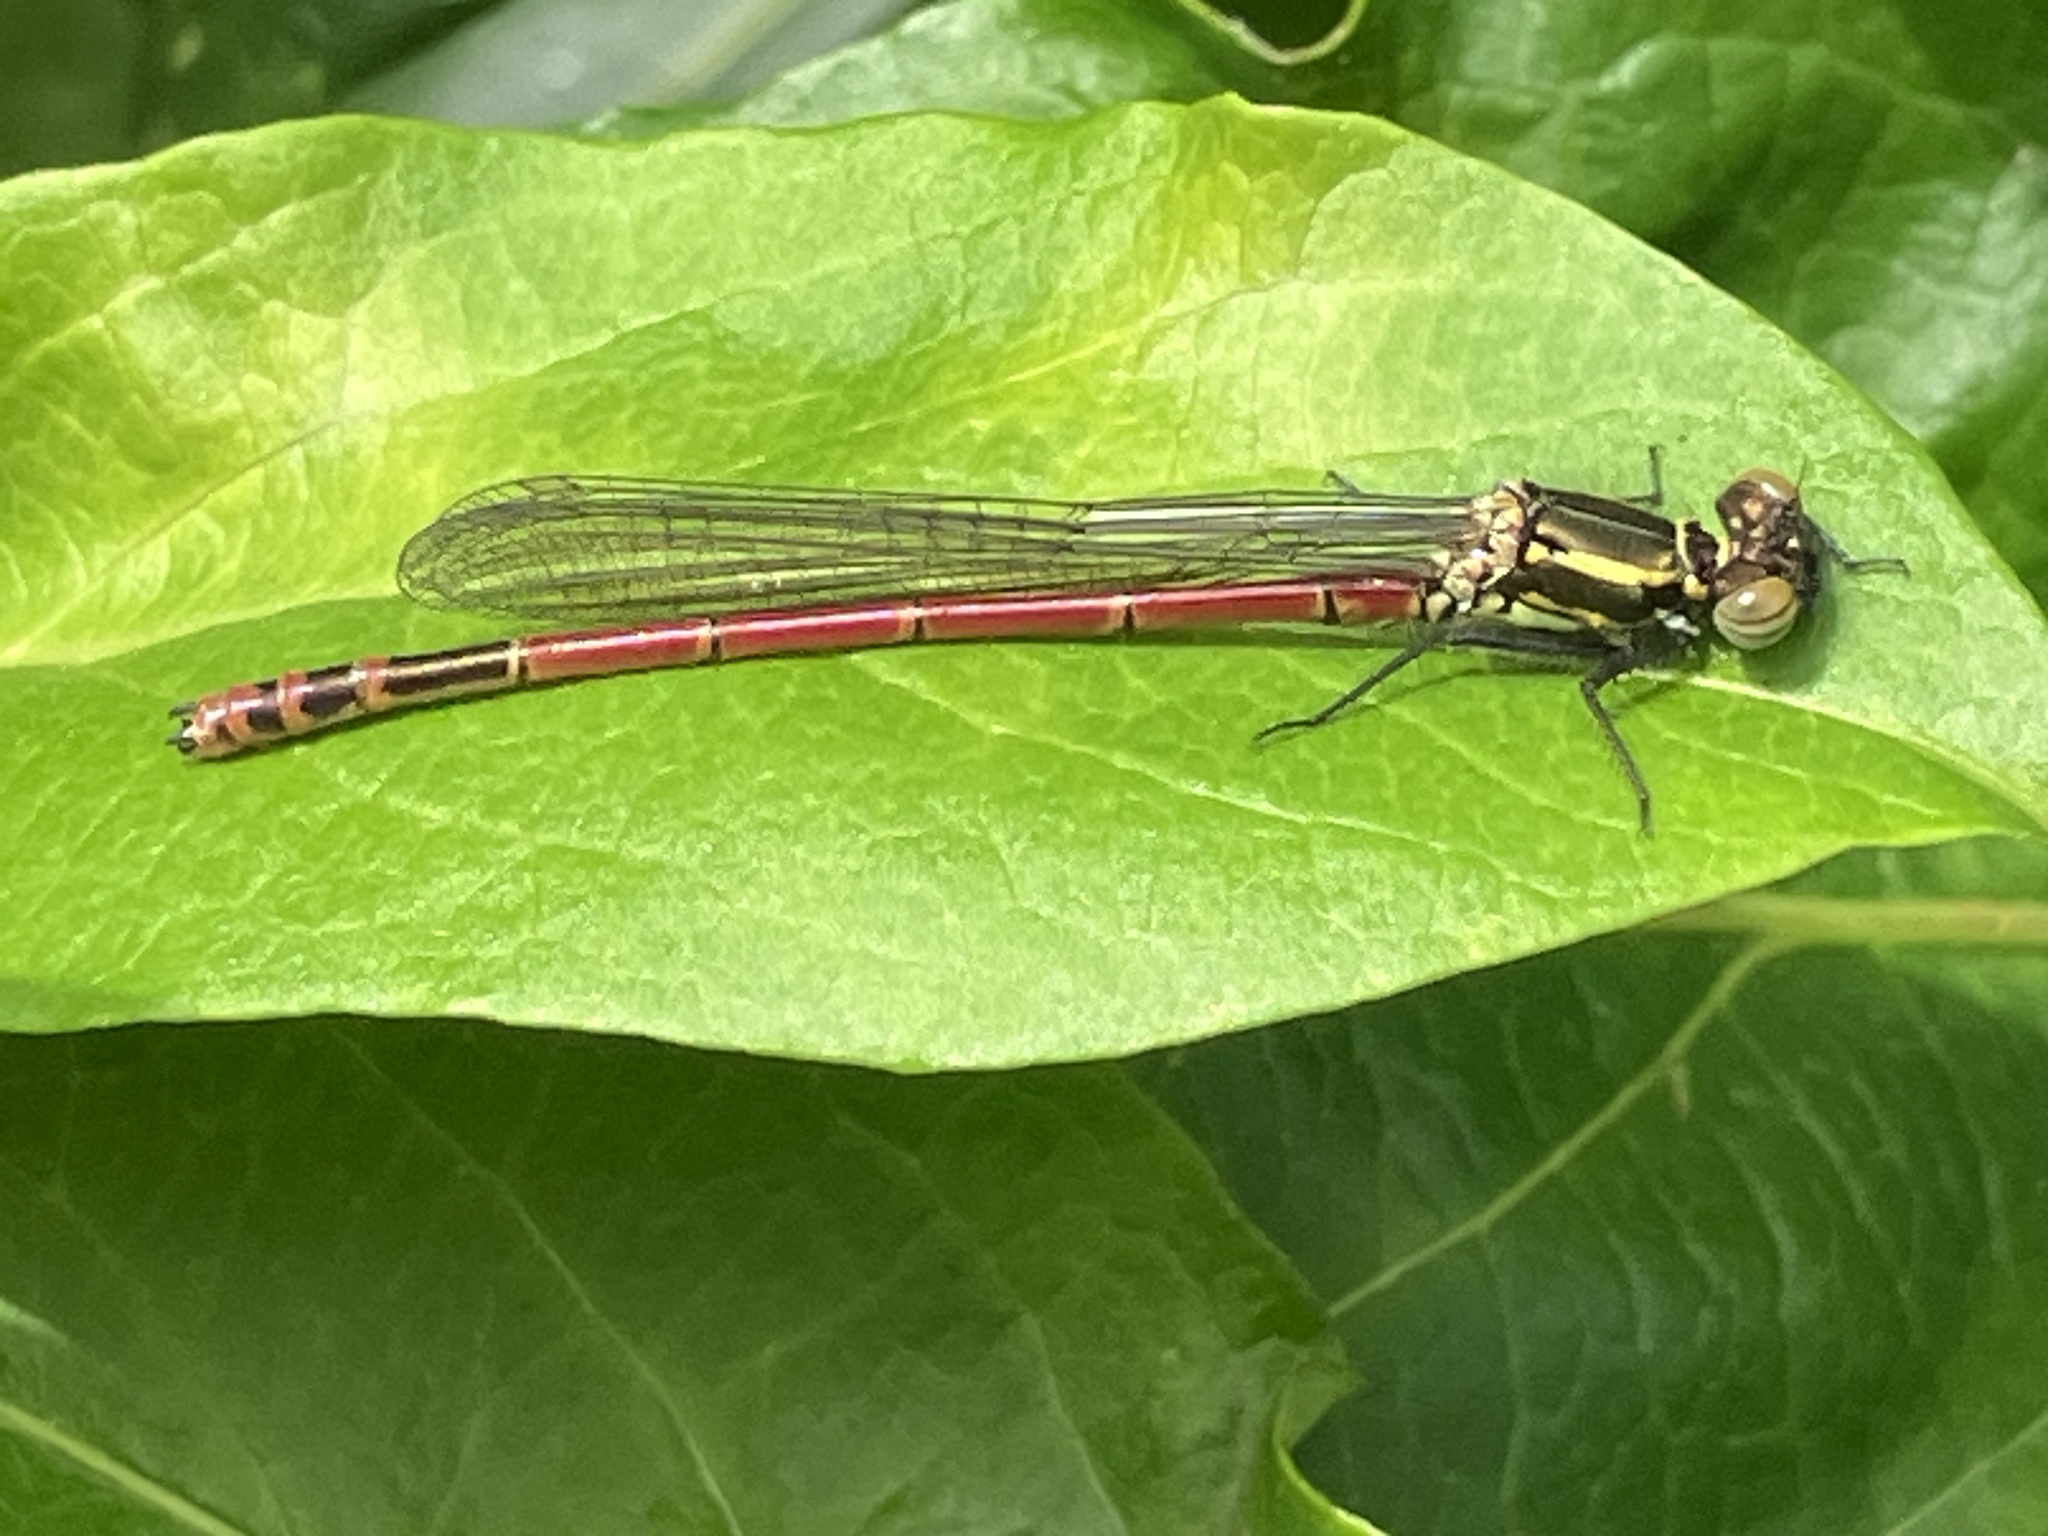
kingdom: Animalia
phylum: Arthropoda
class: Insecta
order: Odonata
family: Coenagrionidae
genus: Pyrrhosoma
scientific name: Pyrrhosoma nymphula
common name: Large red damsel
